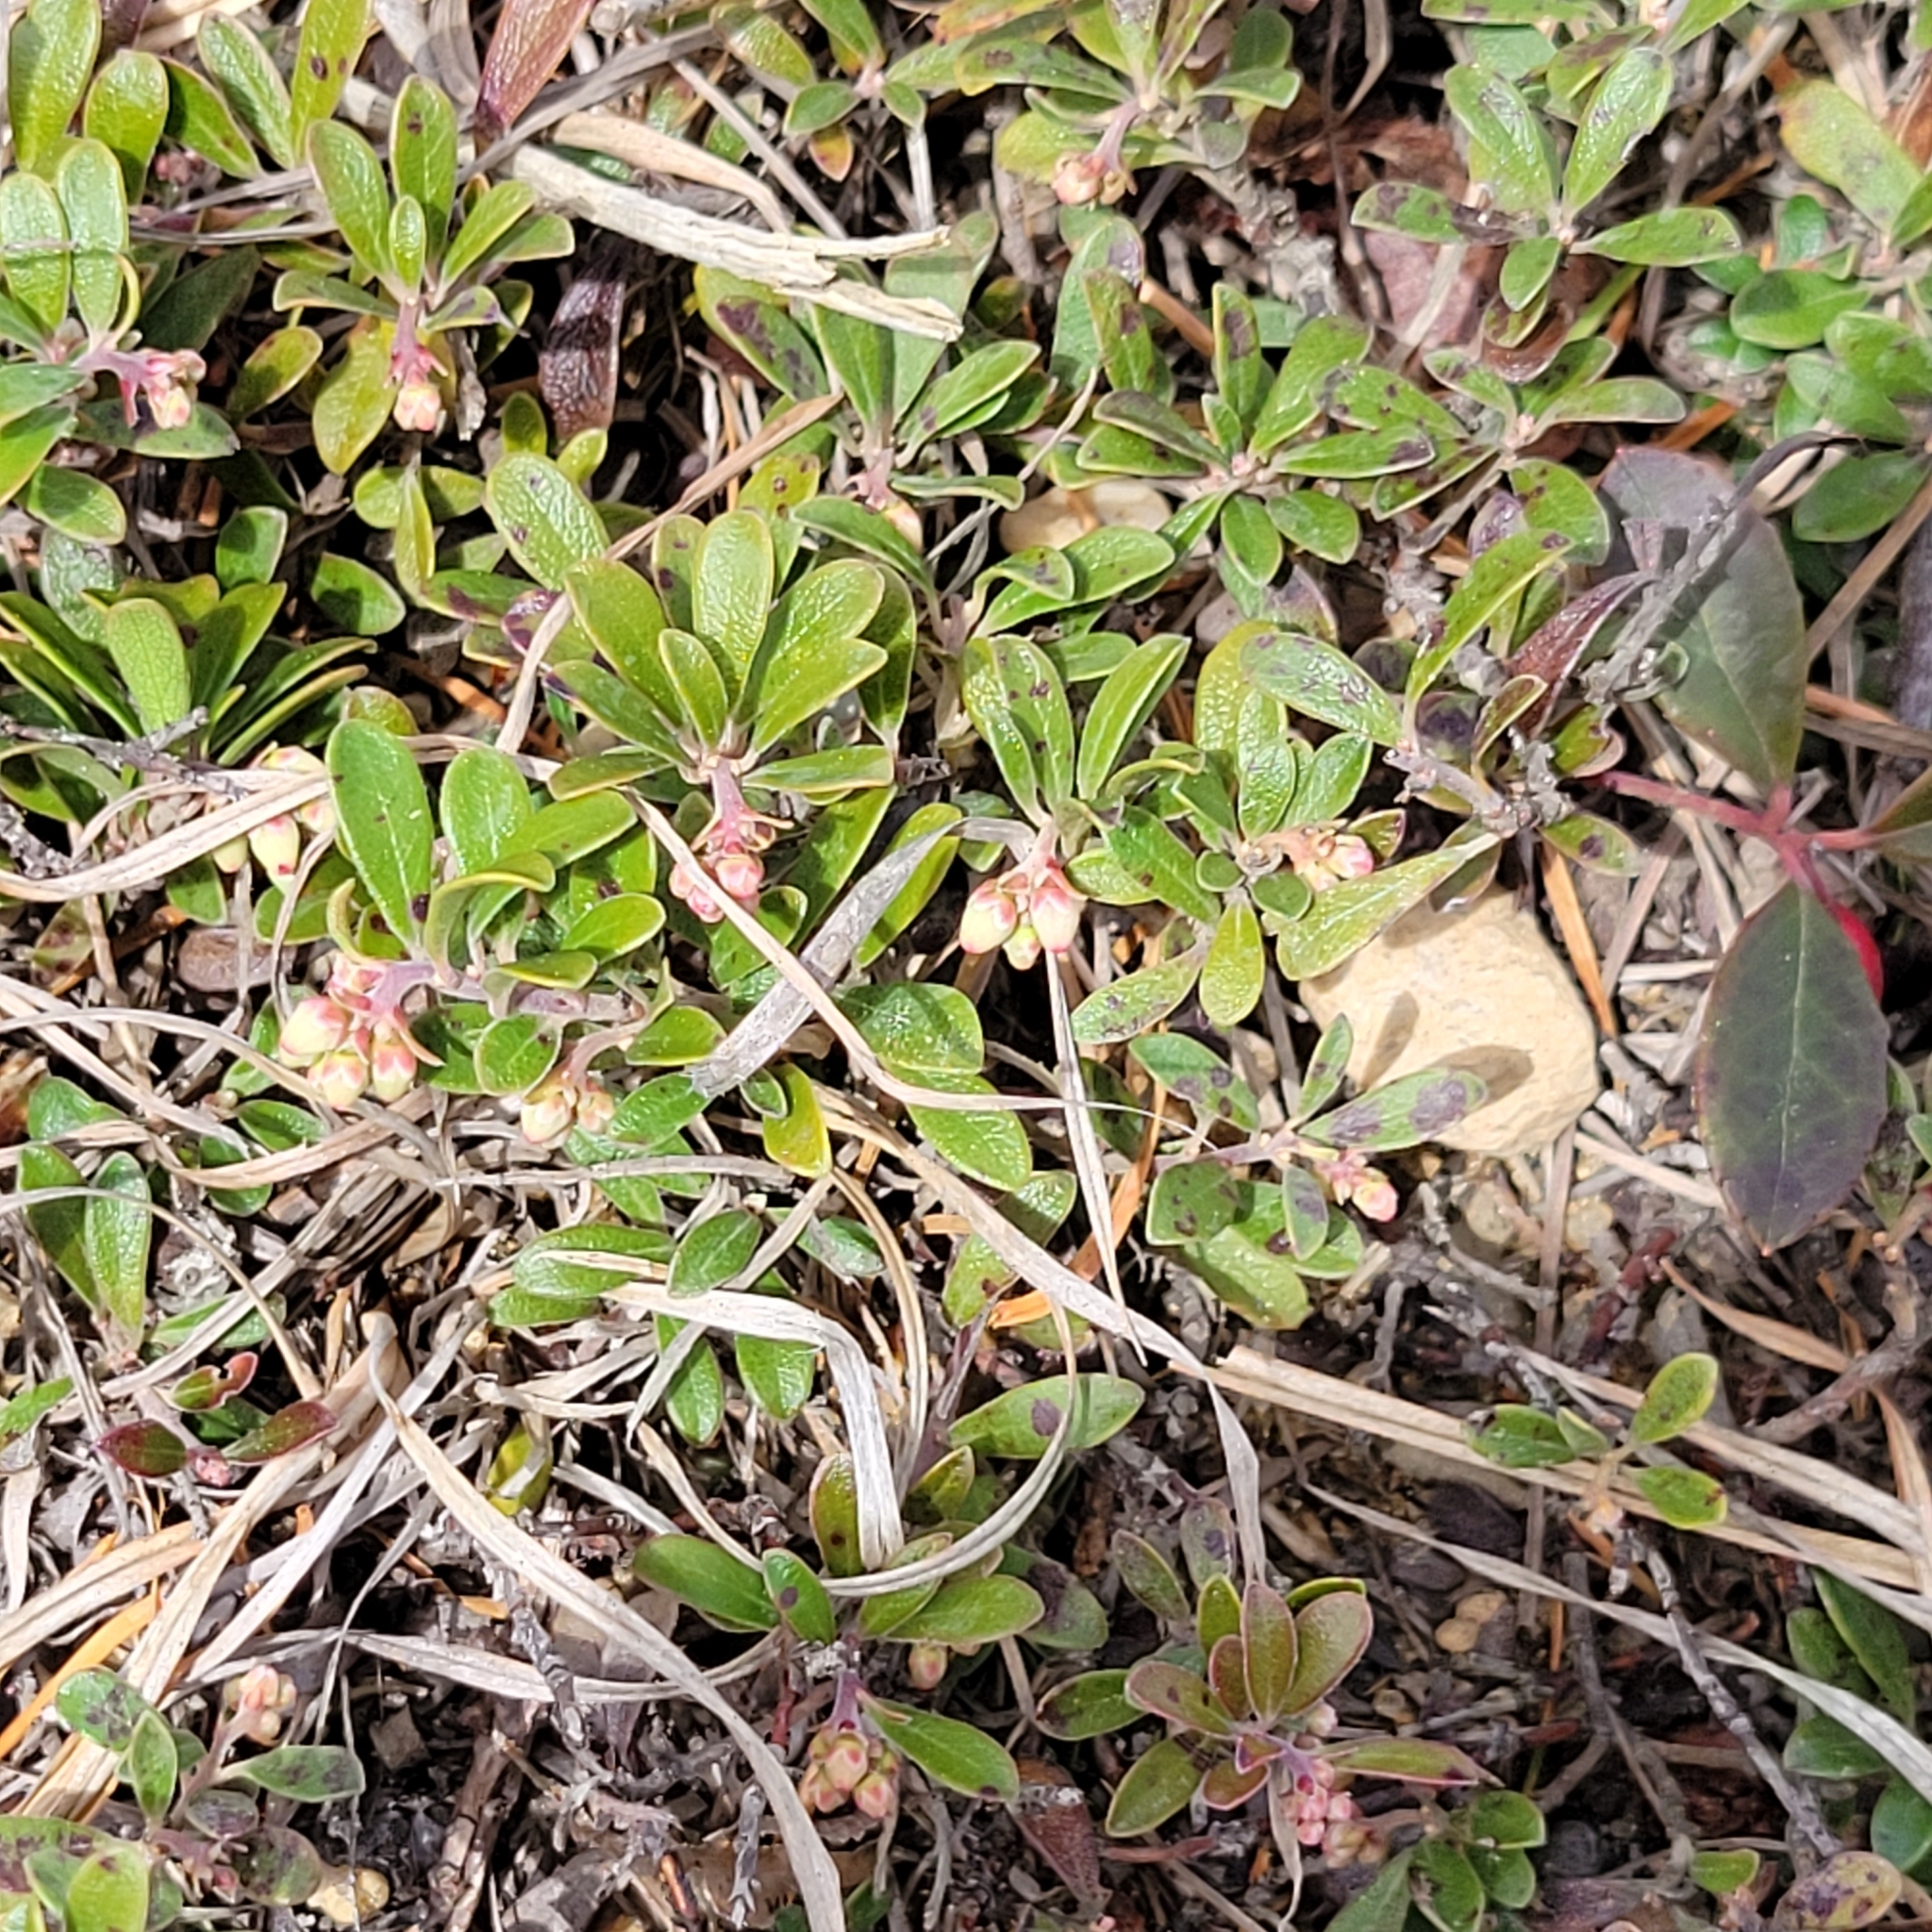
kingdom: Plantae
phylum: Tracheophyta
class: Magnoliopsida
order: Ericales
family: Ericaceae
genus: Arctostaphylos
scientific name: Arctostaphylos uva-ursi
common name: Bearberry
